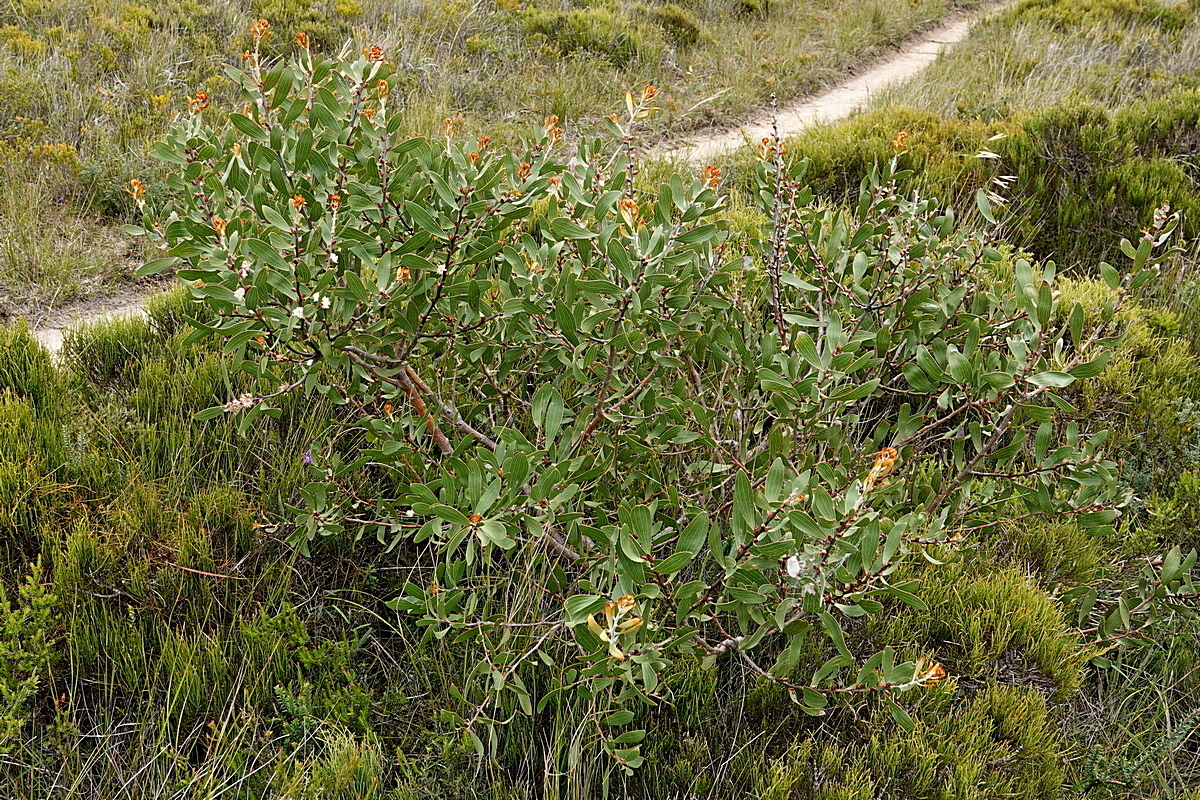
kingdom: Plantae
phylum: Tracheophyta
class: Magnoliopsida
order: Proteales
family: Proteaceae
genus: Hakea
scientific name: Hakea dactyloides
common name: Finger hakea
